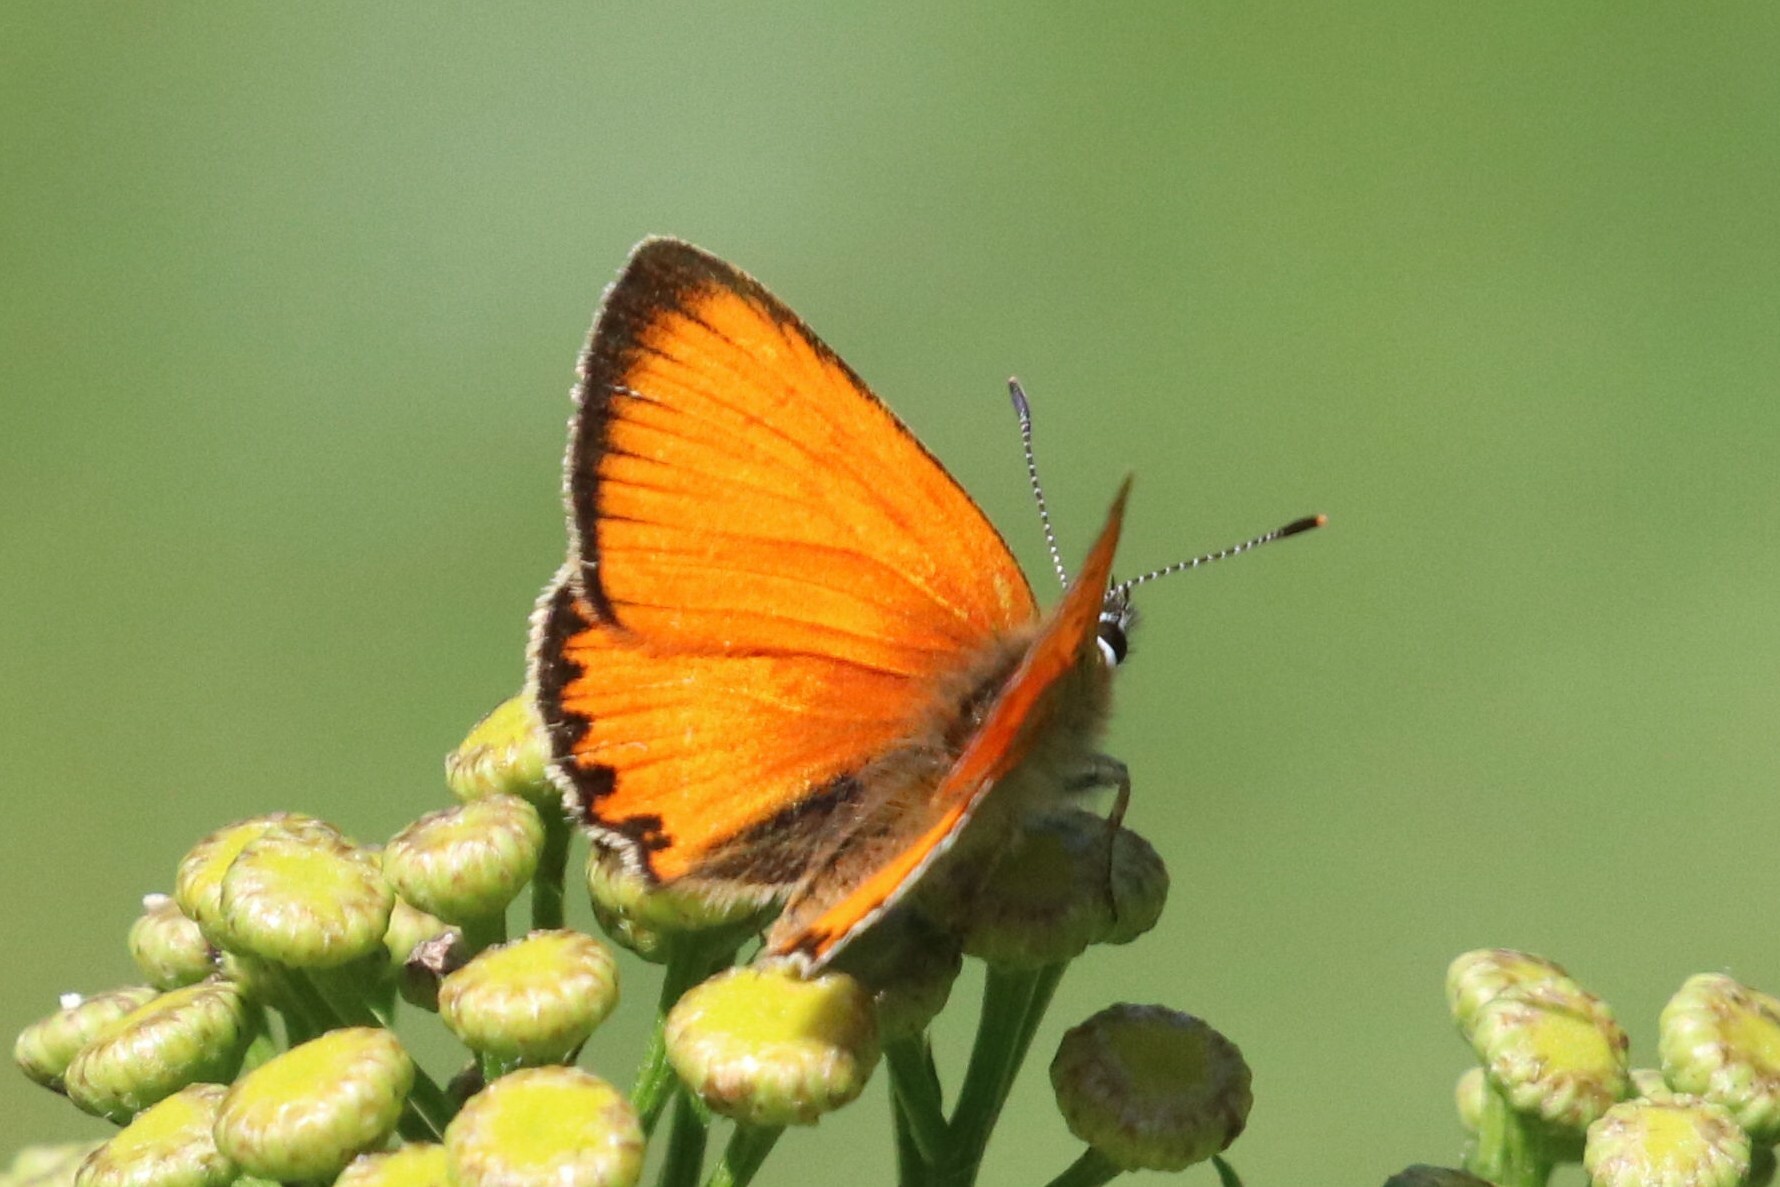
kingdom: Animalia
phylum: Arthropoda
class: Insecta
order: Lepidoptera
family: Lycaenidae
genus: Lycaena
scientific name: Lycaena virgaureae
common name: Scarce copper
